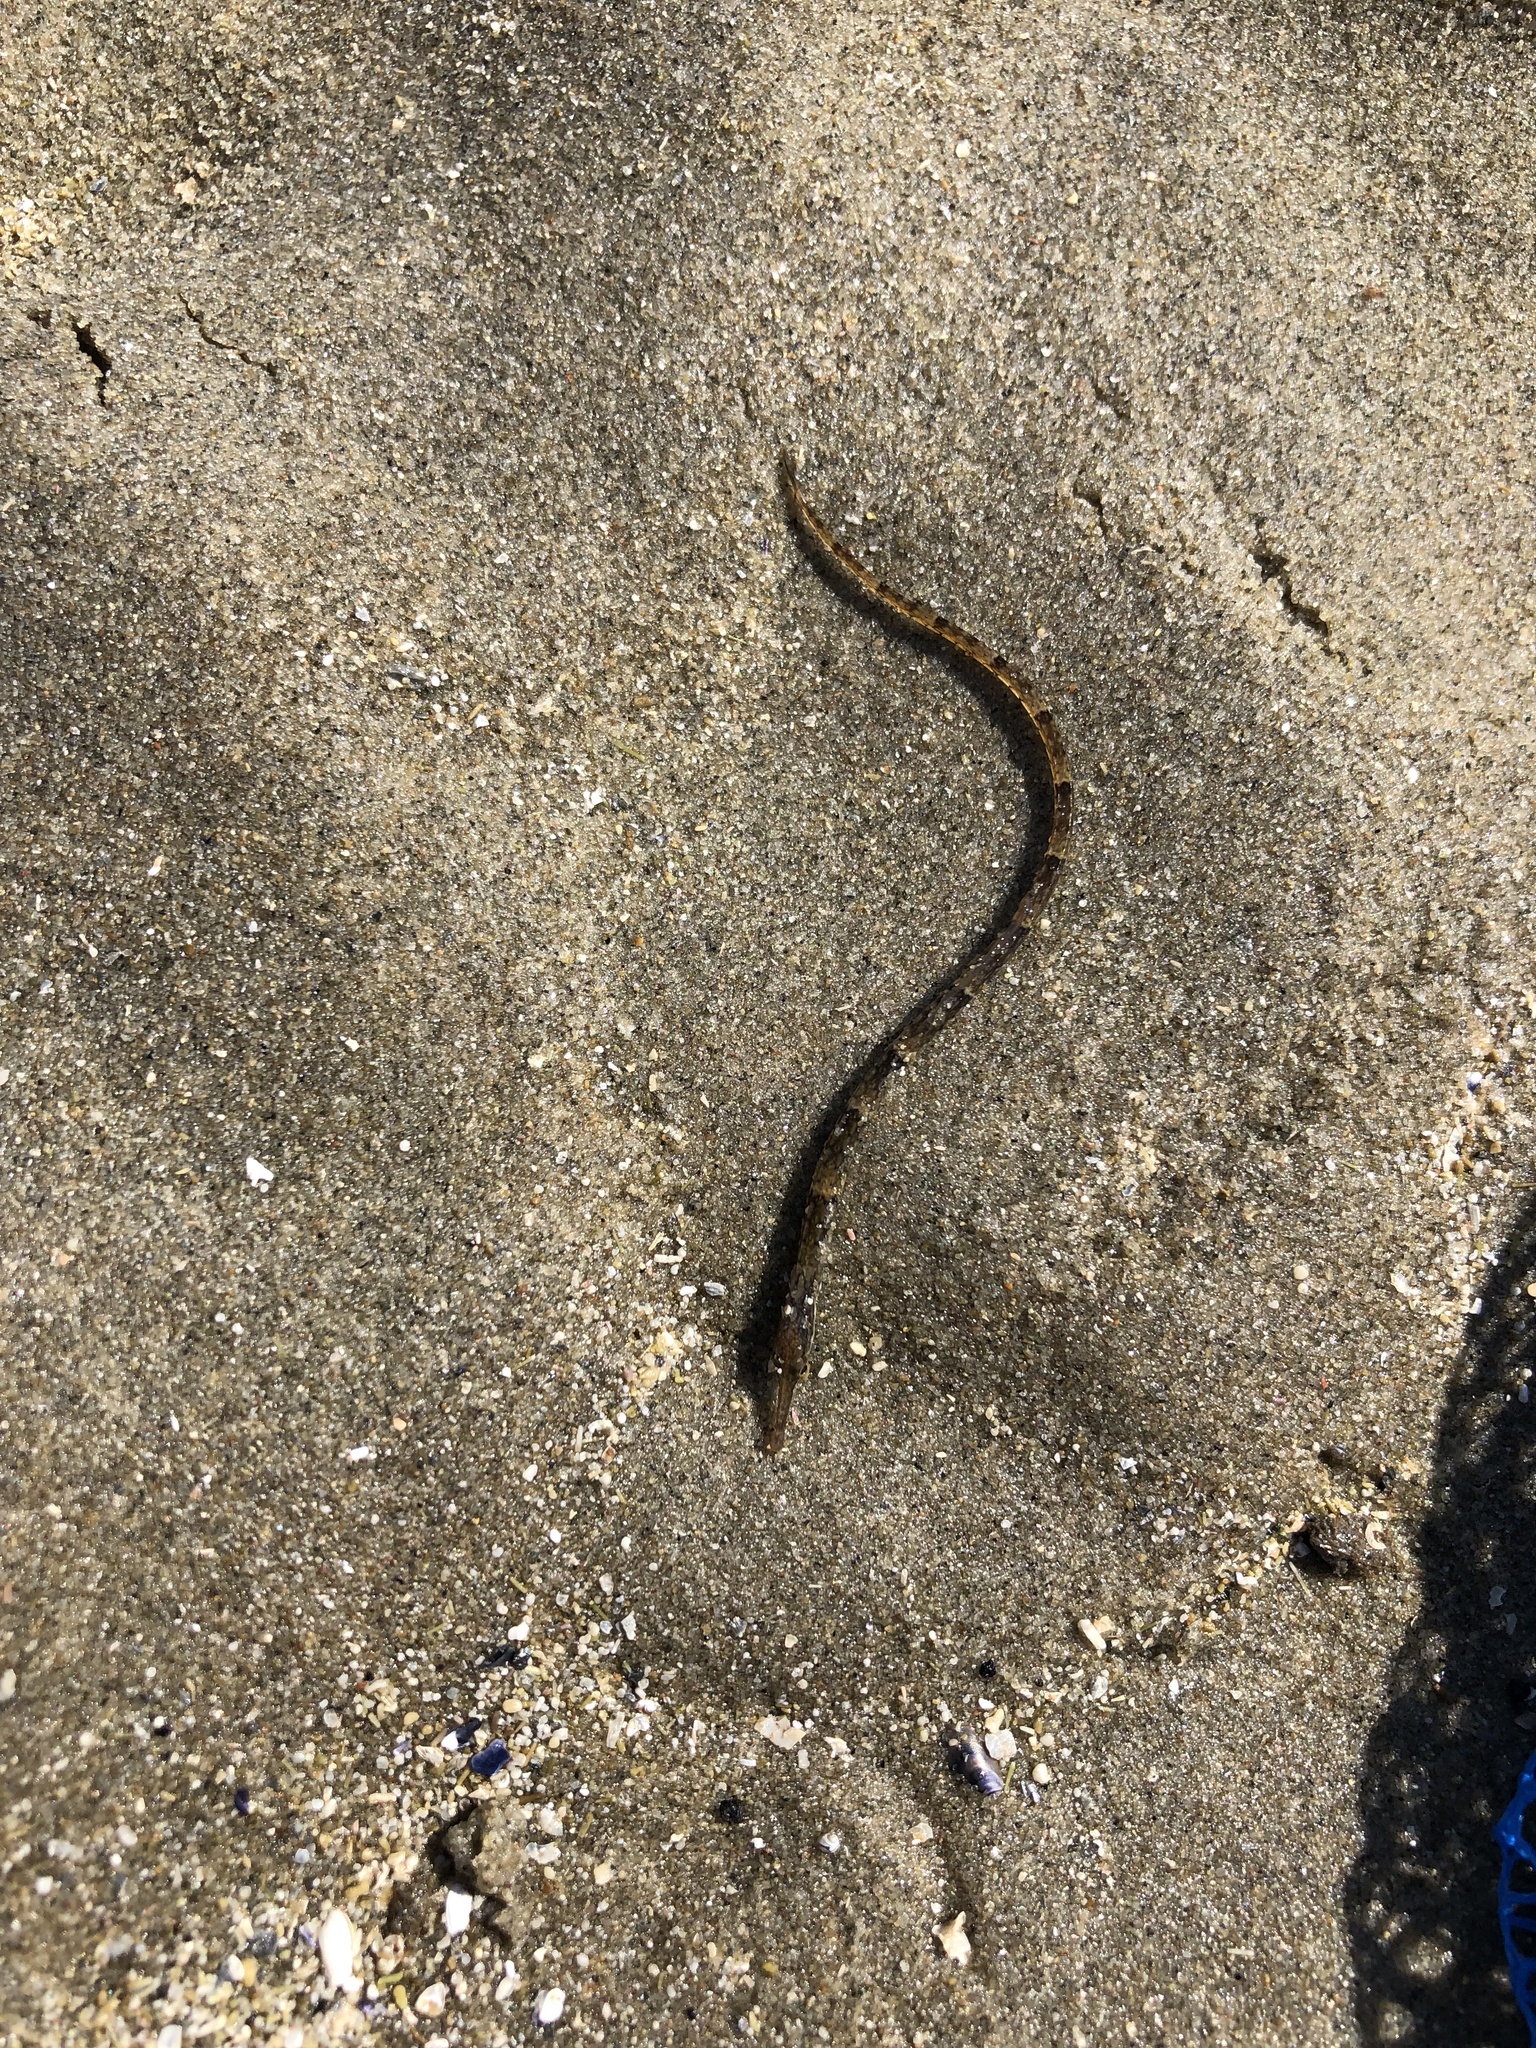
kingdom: Animalia
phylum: Chordata
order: Syngnathiformes
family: Syngnathidae
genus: Syngnathus
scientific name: Syngnathus fuscus
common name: Northern pipefish
